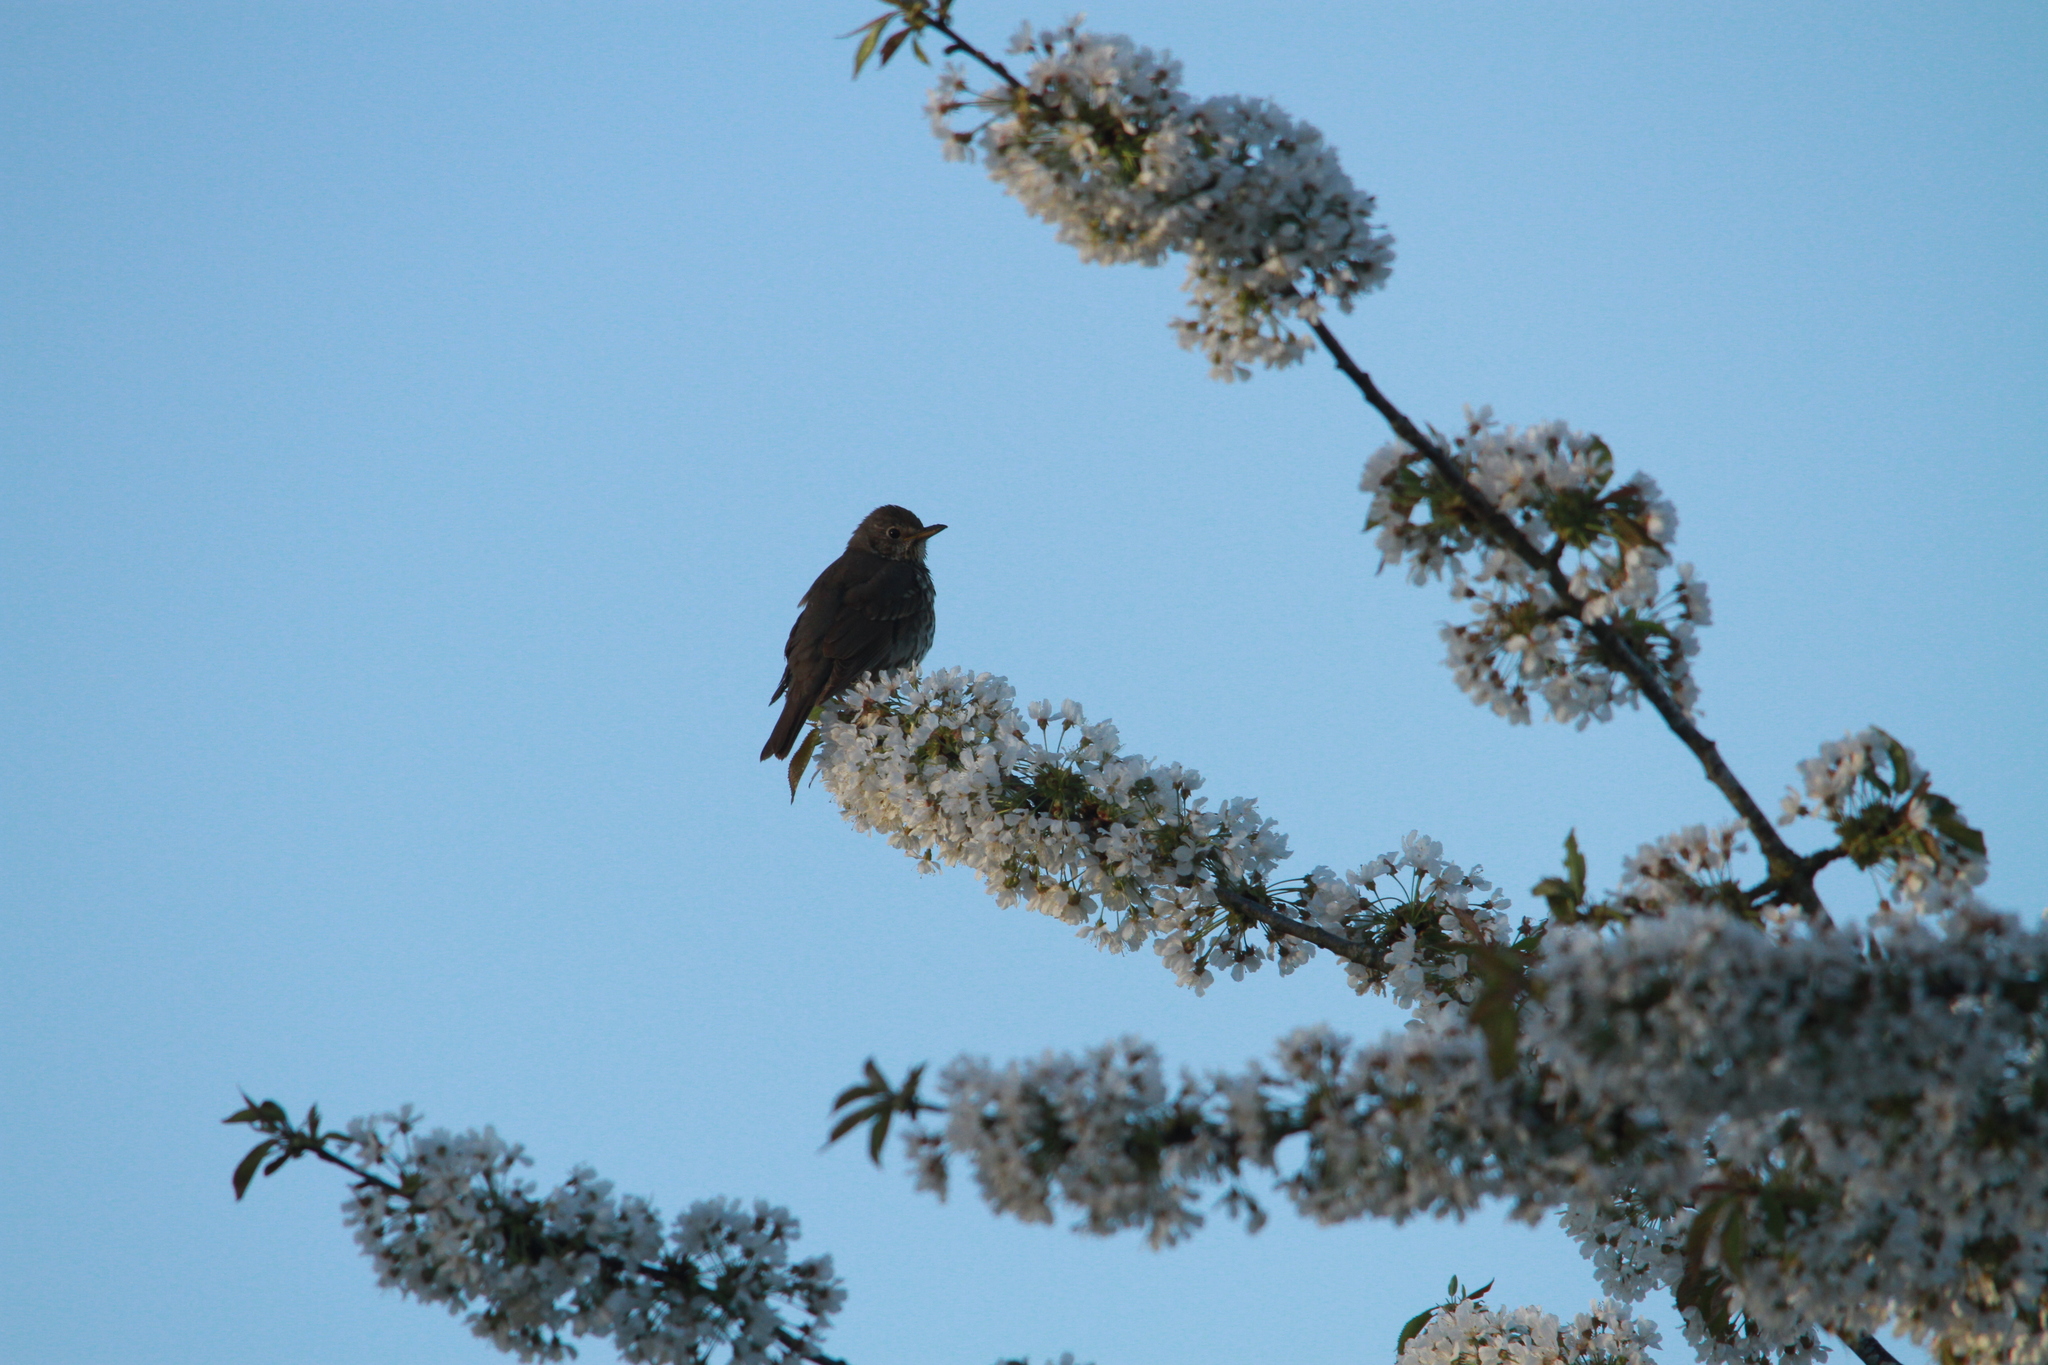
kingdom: Animalia
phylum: Chordata
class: Aves
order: Passeriformes
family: Turdidae
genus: Turdus
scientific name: Turdus philomelos
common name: Song thrush
